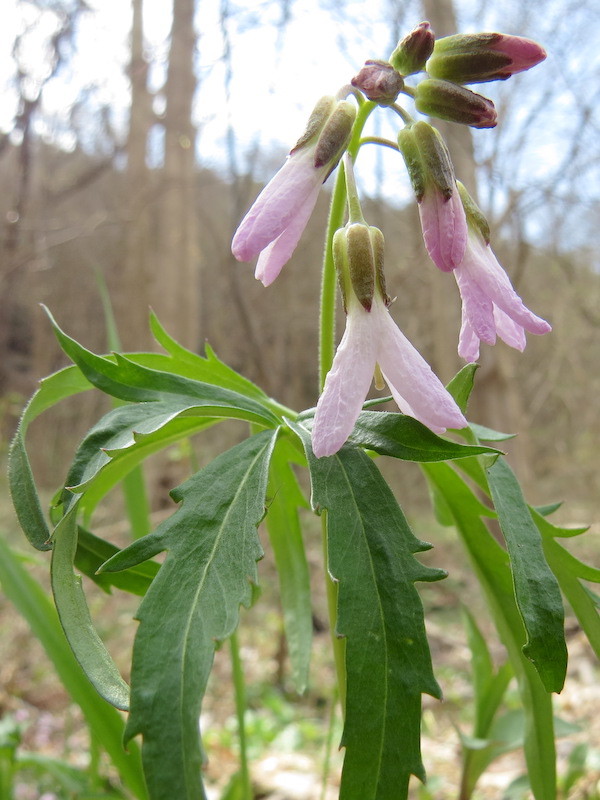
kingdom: Plantae
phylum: Tracheophyta
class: Magnoliopsida
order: Brassicales
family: Brassicaceae
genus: Cardamine
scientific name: Cardamine concatenata
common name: Cut-leaf toothcup
